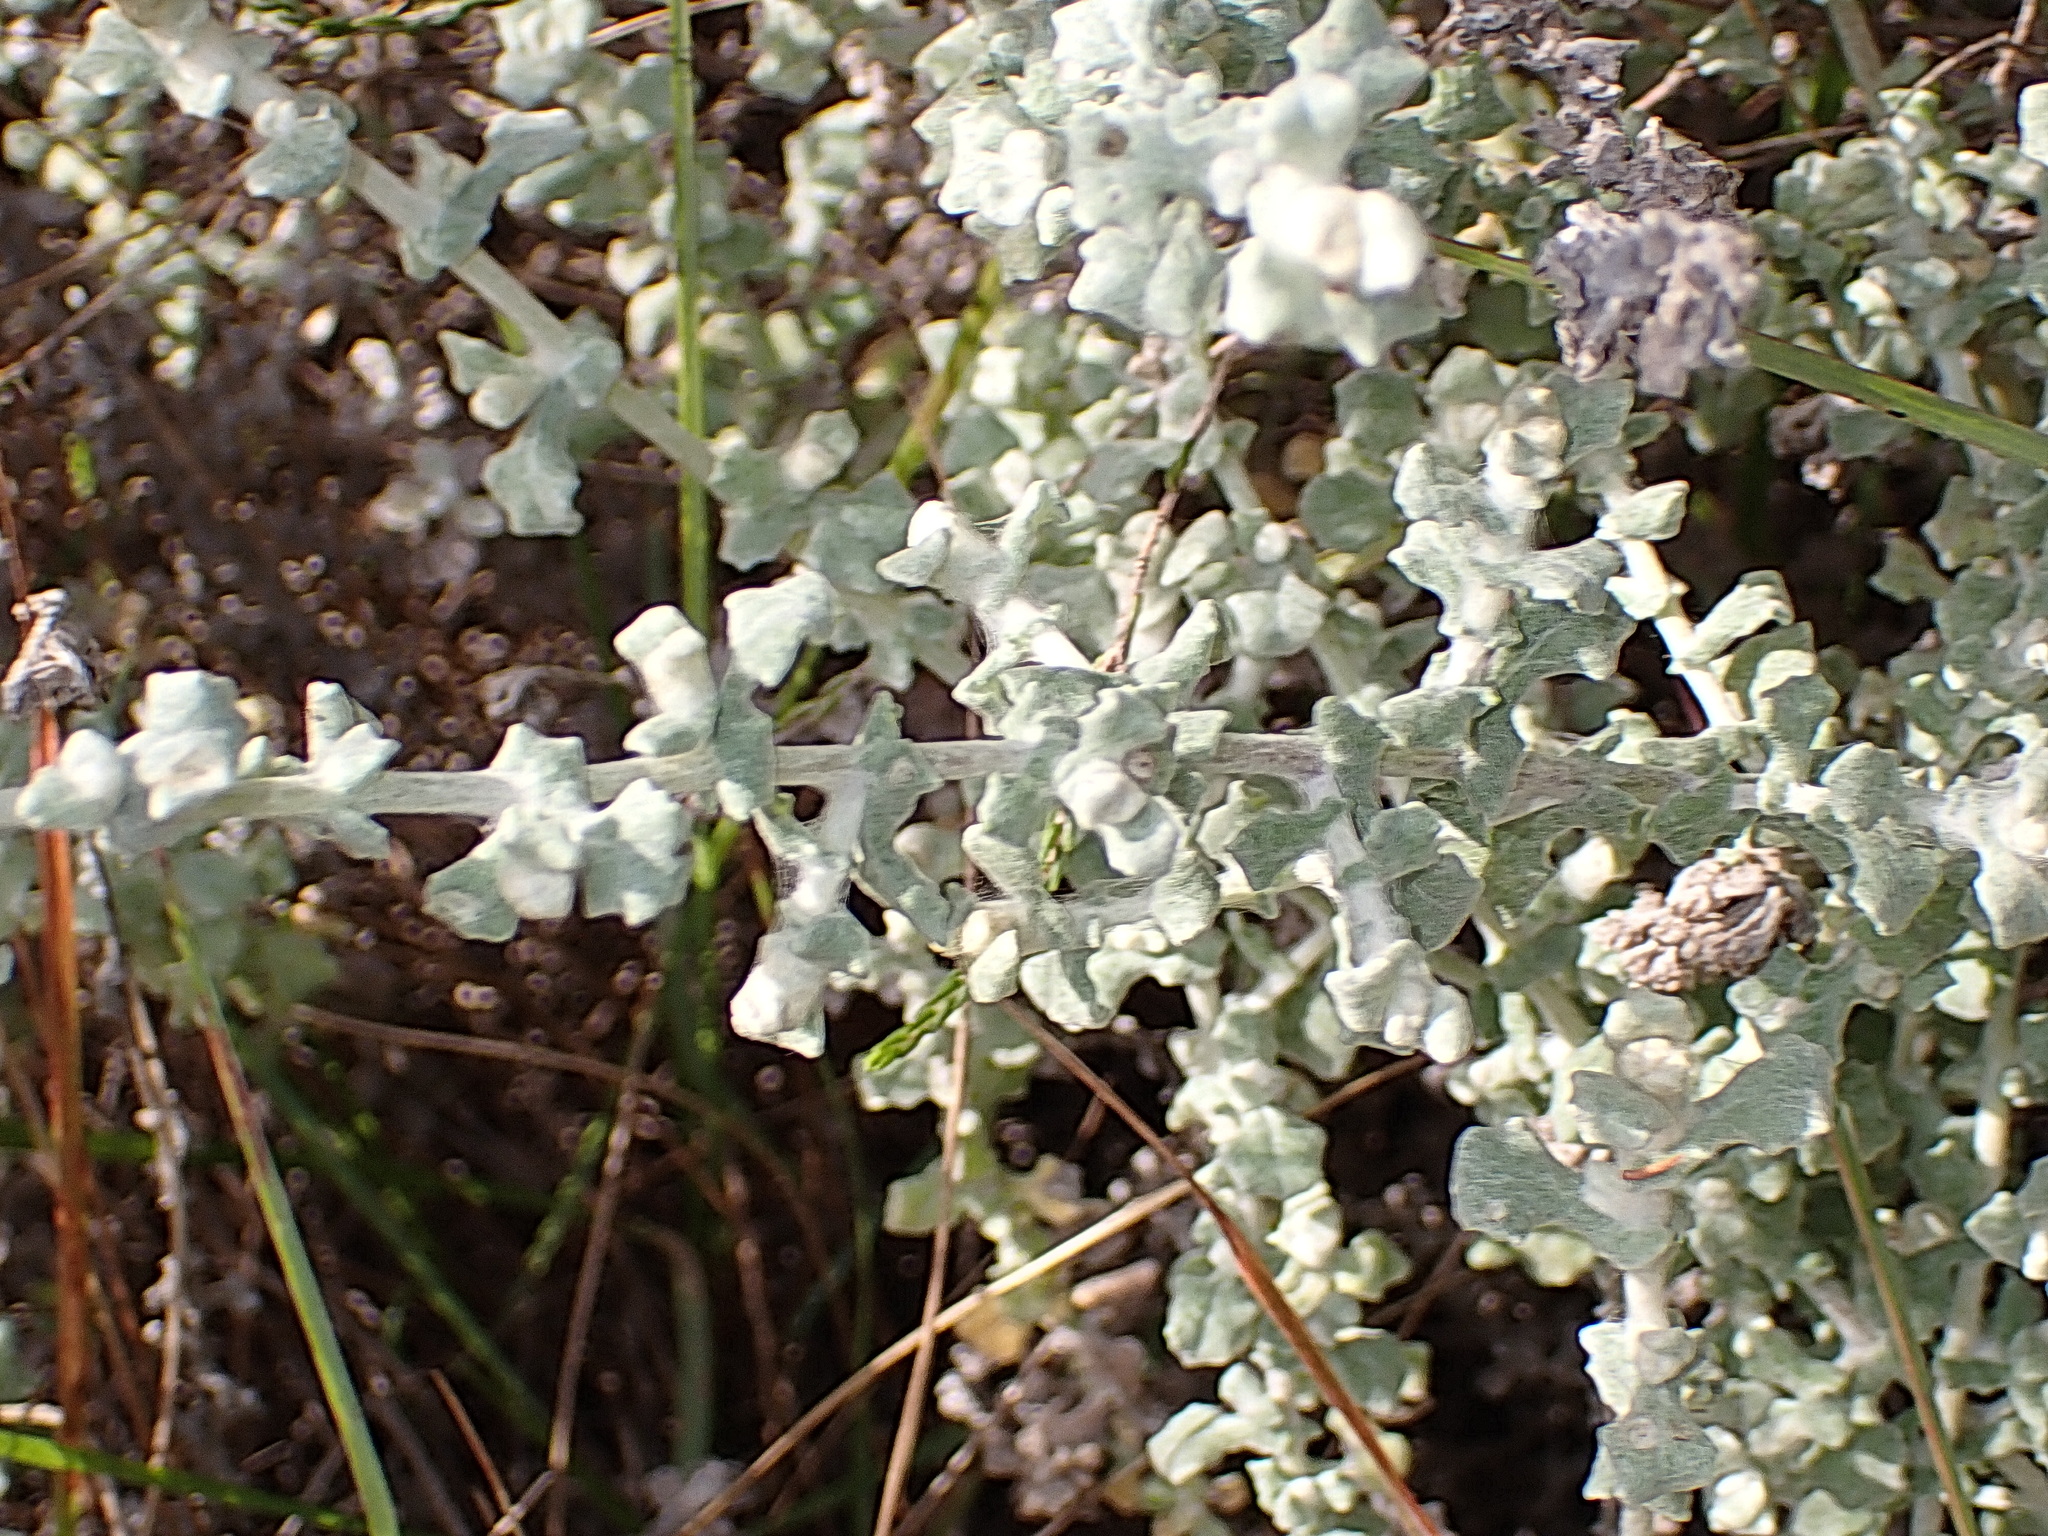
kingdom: Plantae
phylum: Tracheophyta
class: Magnoliopsida
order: Asterales
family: Asteraceae
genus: Helichrysum
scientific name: Helichrysum patulum
